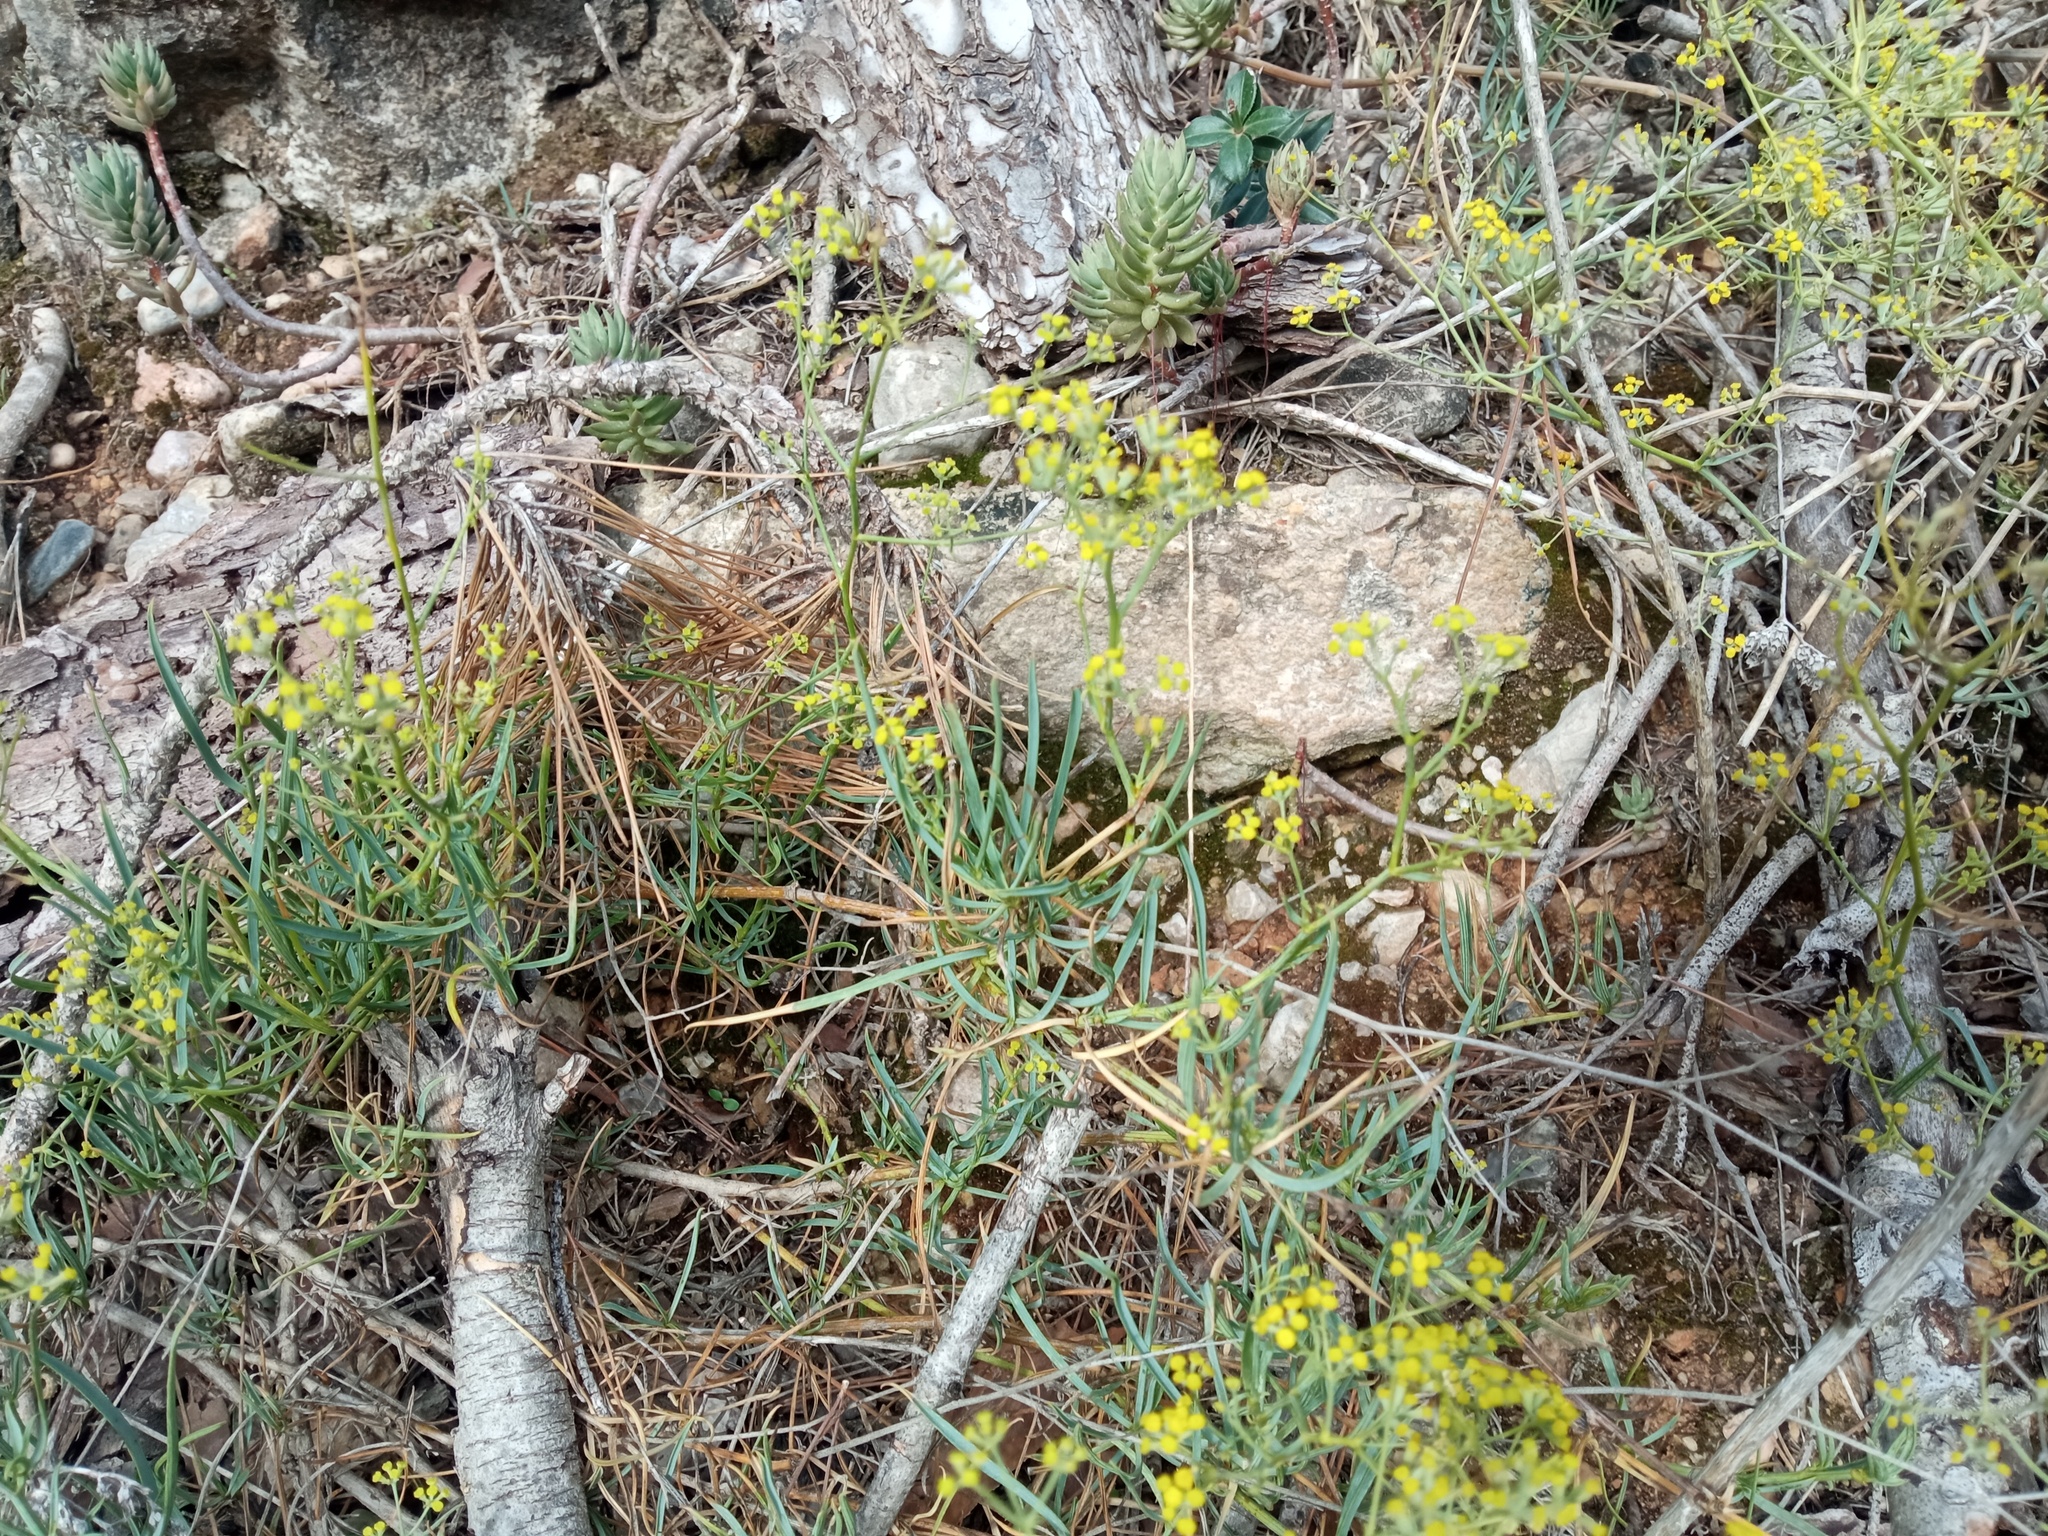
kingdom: Plantae
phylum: Tracheophyta
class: Magnoliopsida
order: Apiales
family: Apiaceae
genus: Bupleurum
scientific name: Bupleurum fruticescens
